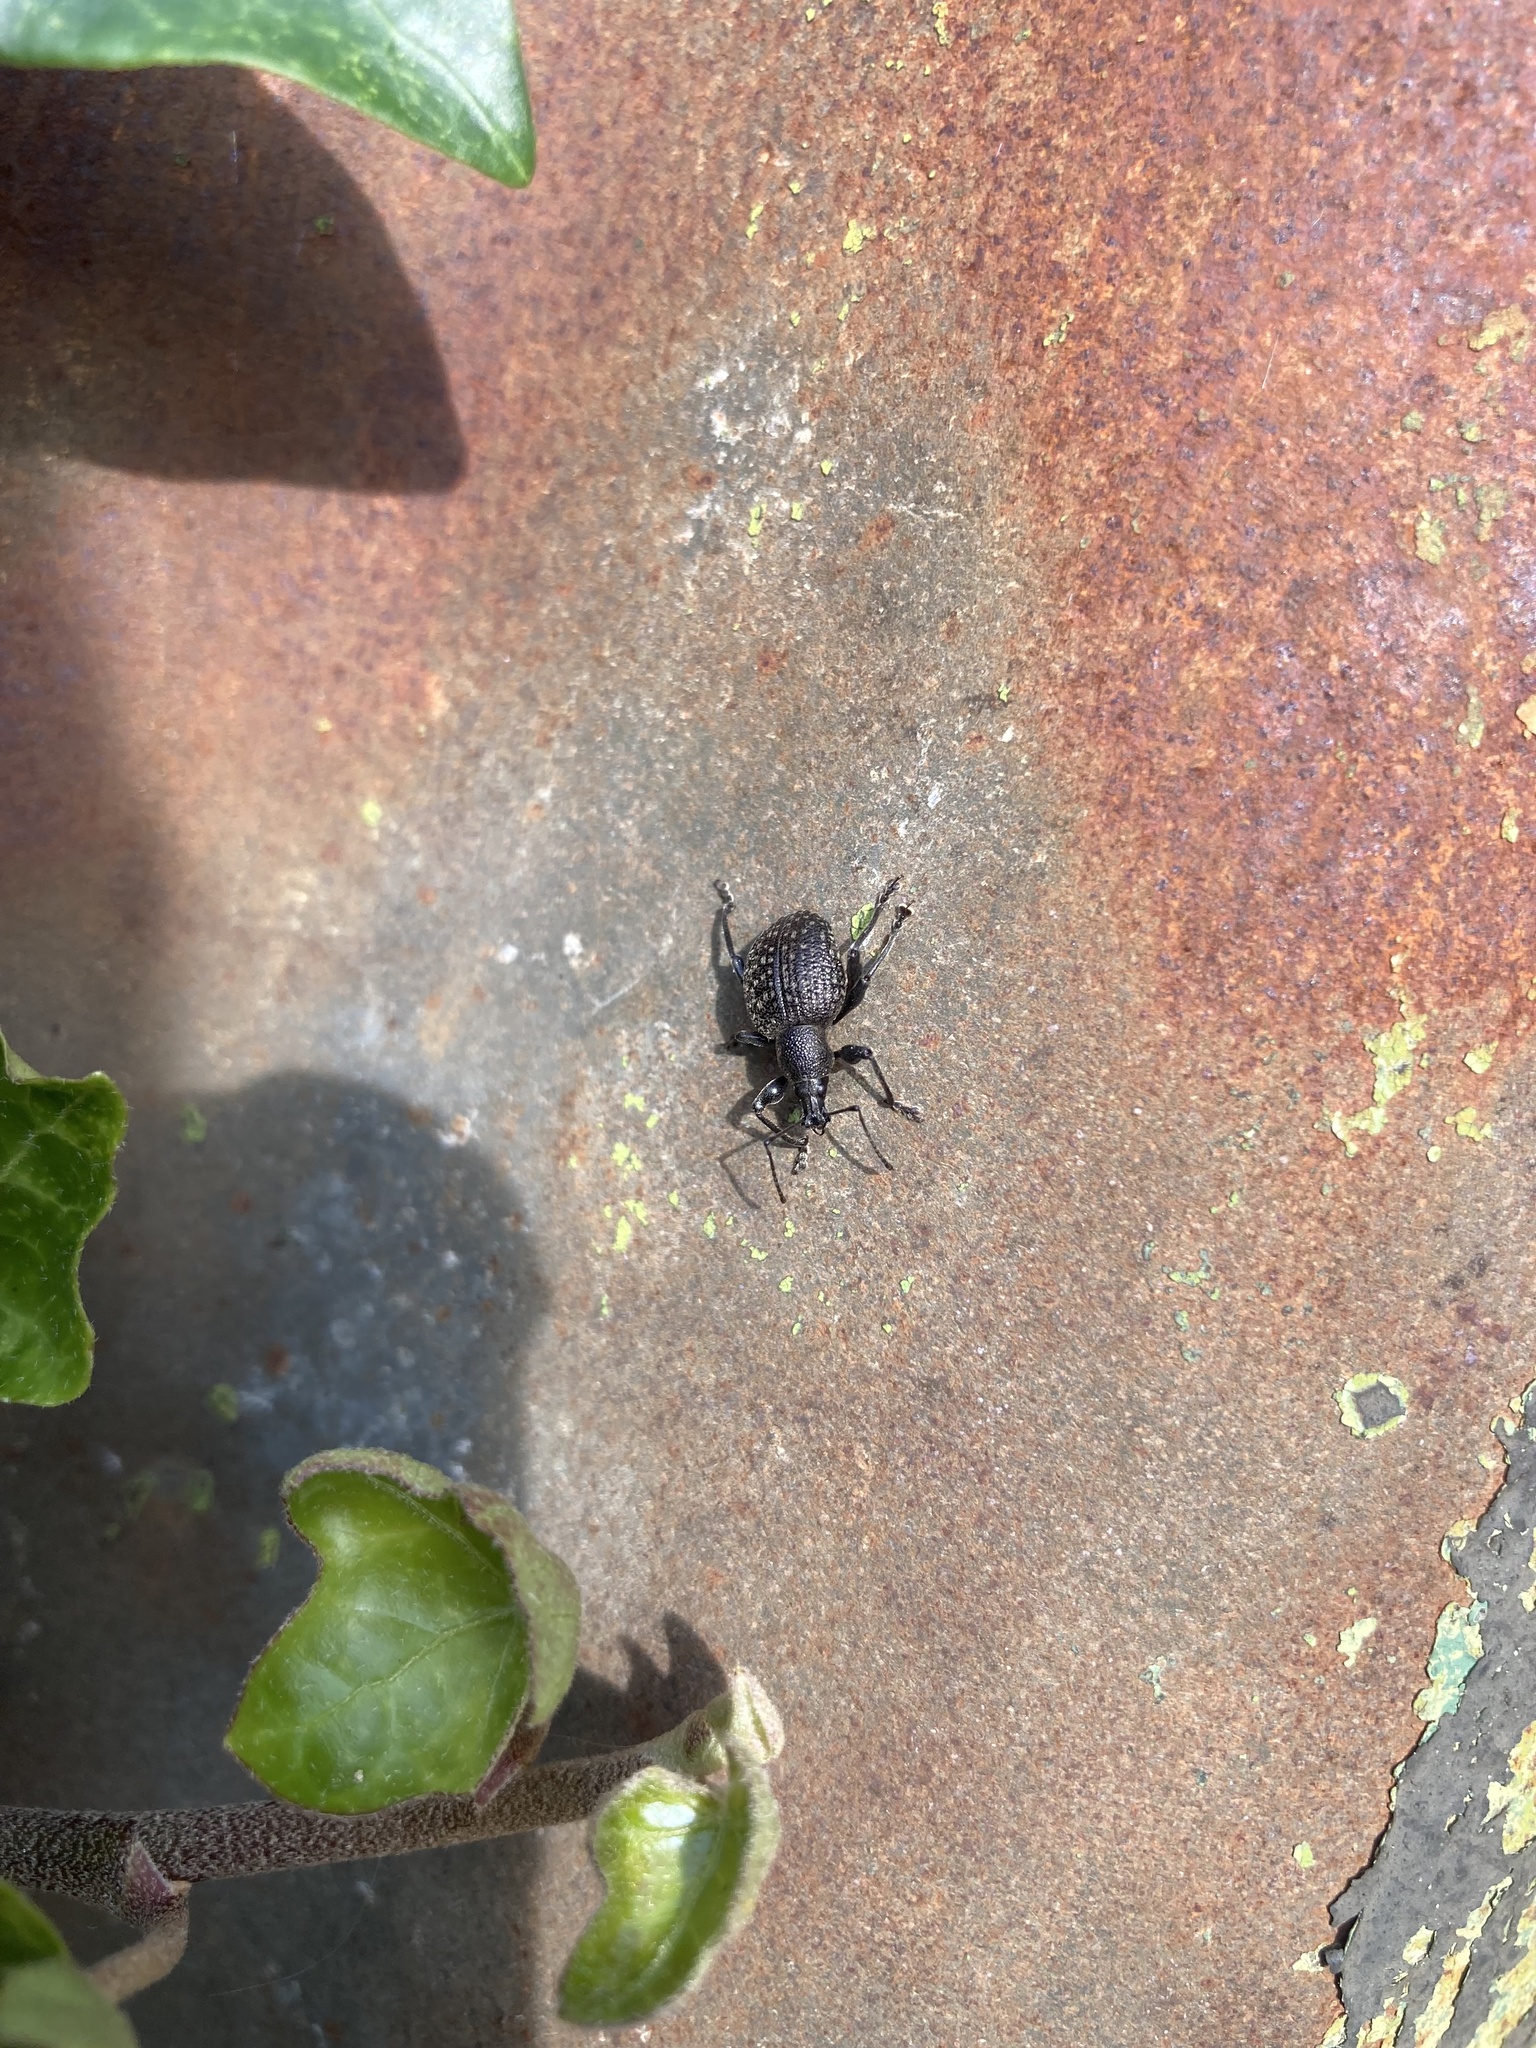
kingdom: Animalia
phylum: Arthropoda
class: Insecta
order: Coleoptera
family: Curculionidae
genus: Otiorhynchus
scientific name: Otiorhynchus armadillo
